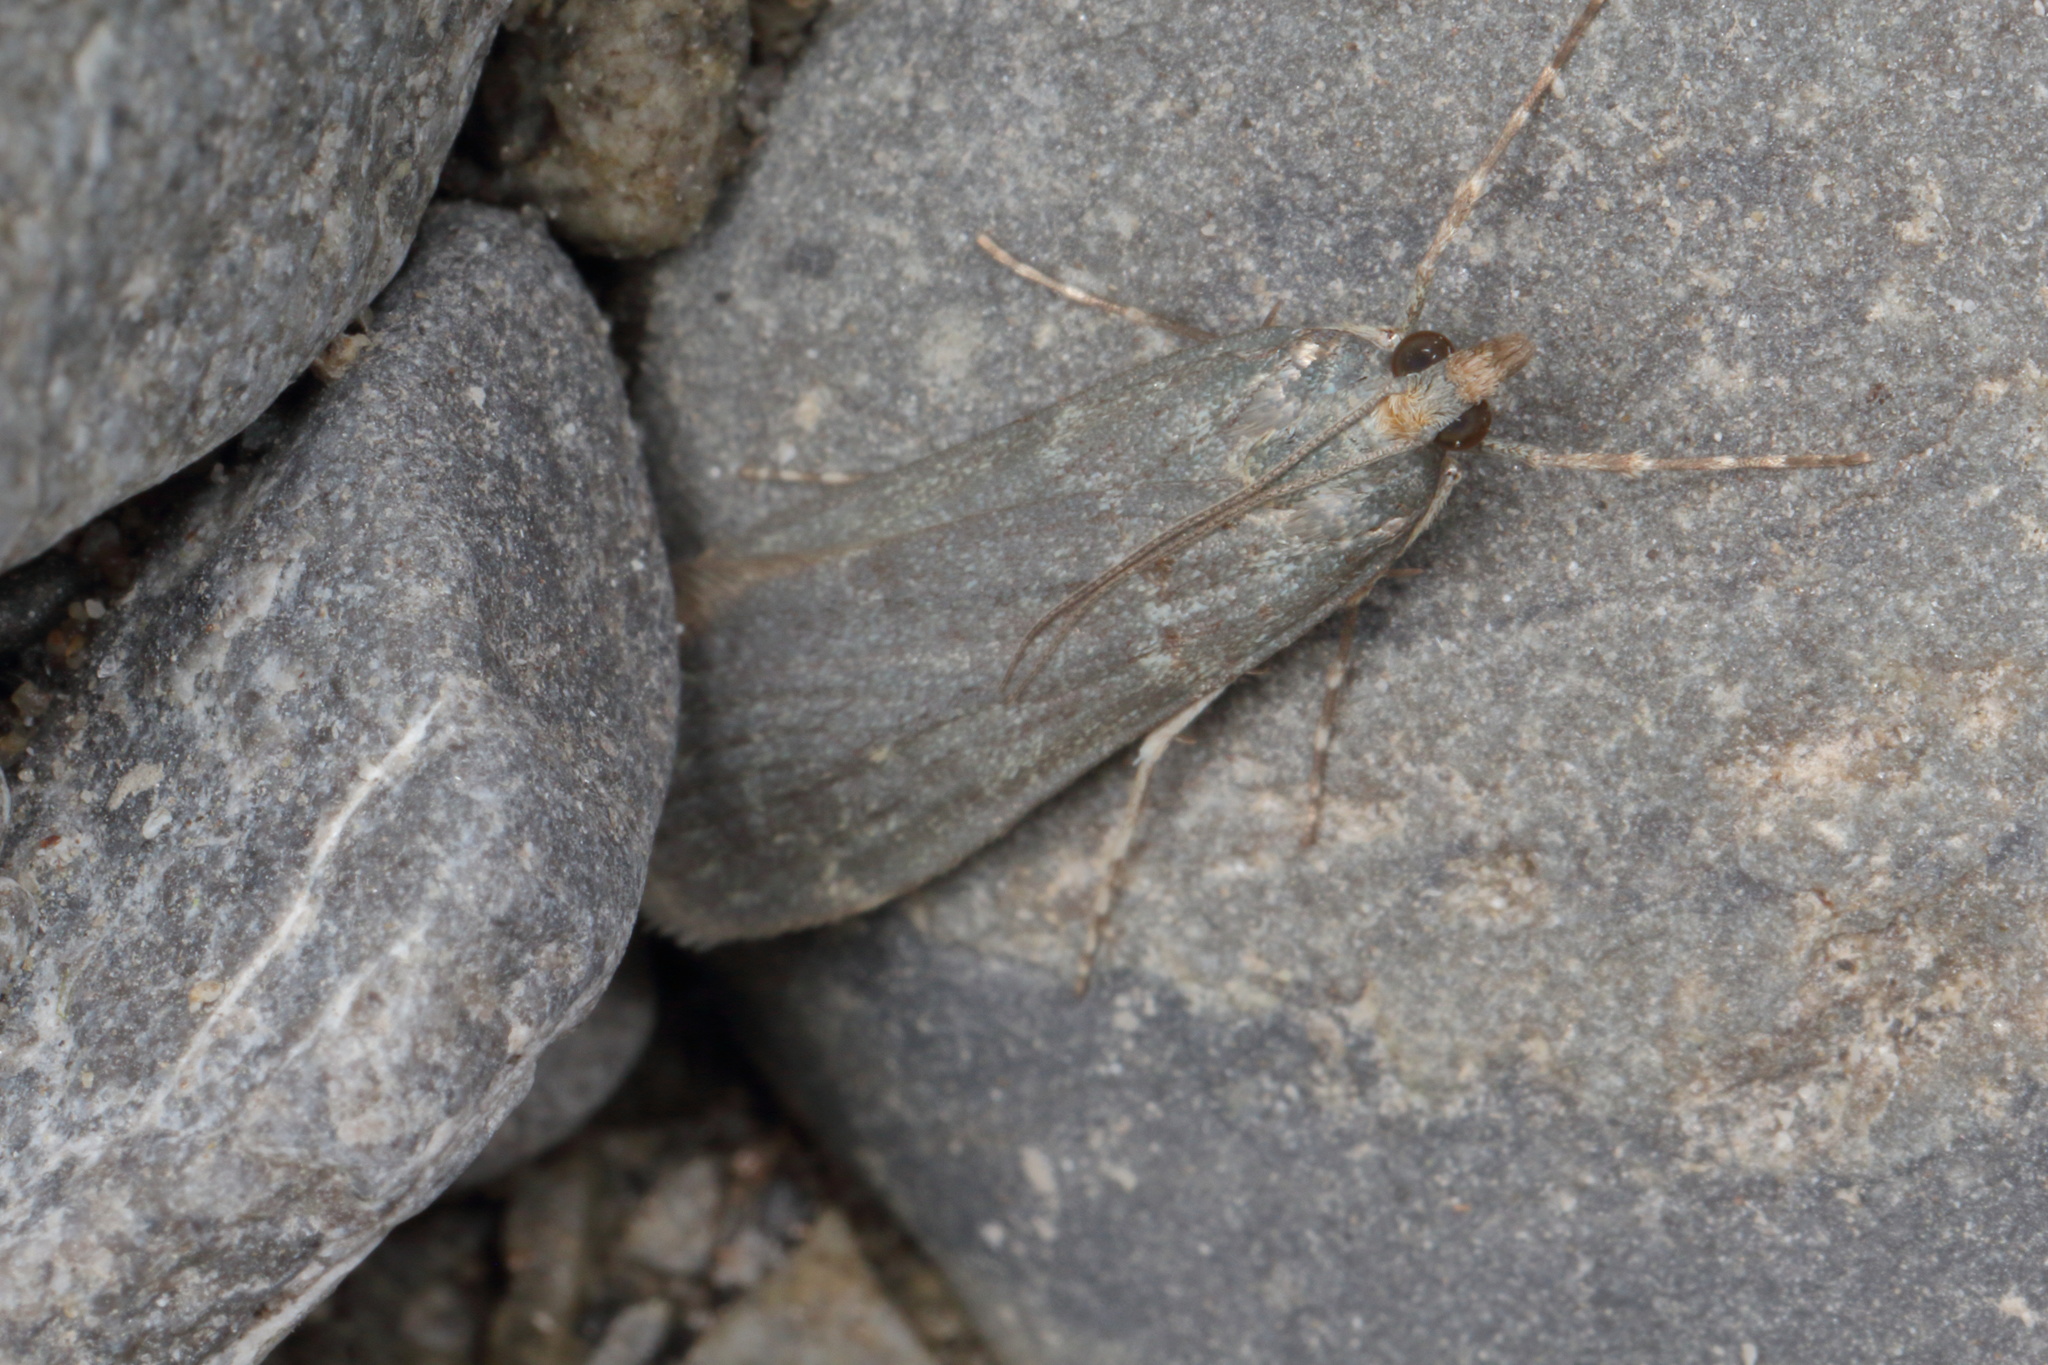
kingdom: Animalia
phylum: Arthropoda
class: Insecta
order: Lepidoptera
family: Crambidae
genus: Eudonia
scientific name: Eudonia cataxesta
